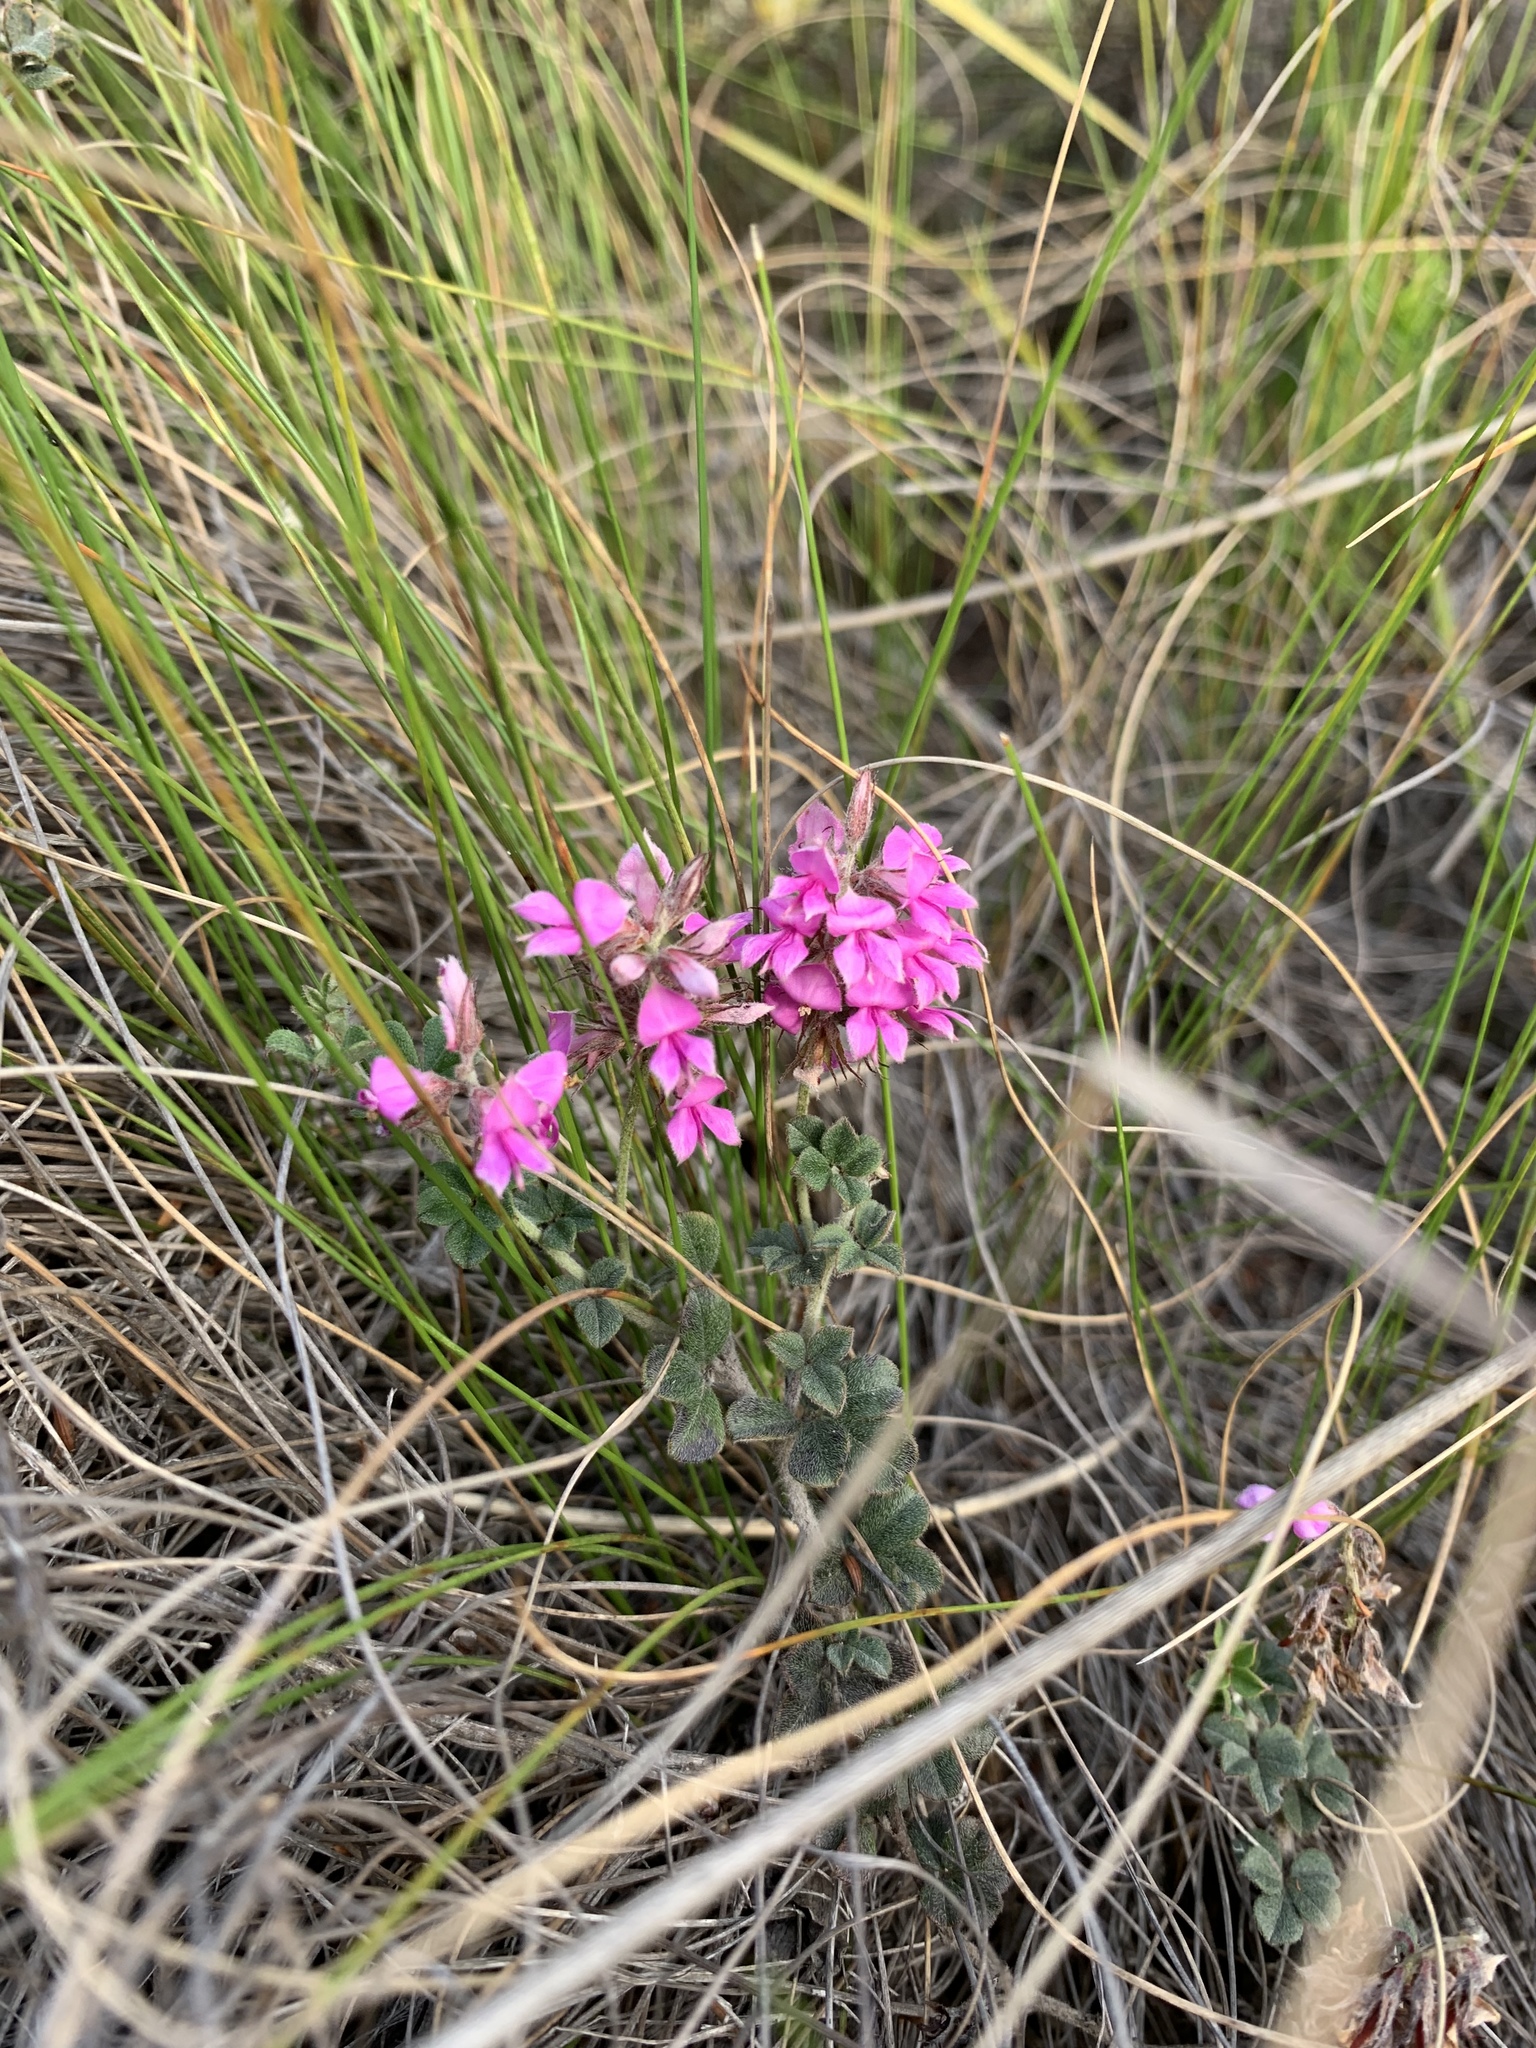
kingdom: Plantae
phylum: Tracheophyta
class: Magnoliopsida
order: Fabales
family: Fabaceae
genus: Indigofera
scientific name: Indigofera mauritanica
